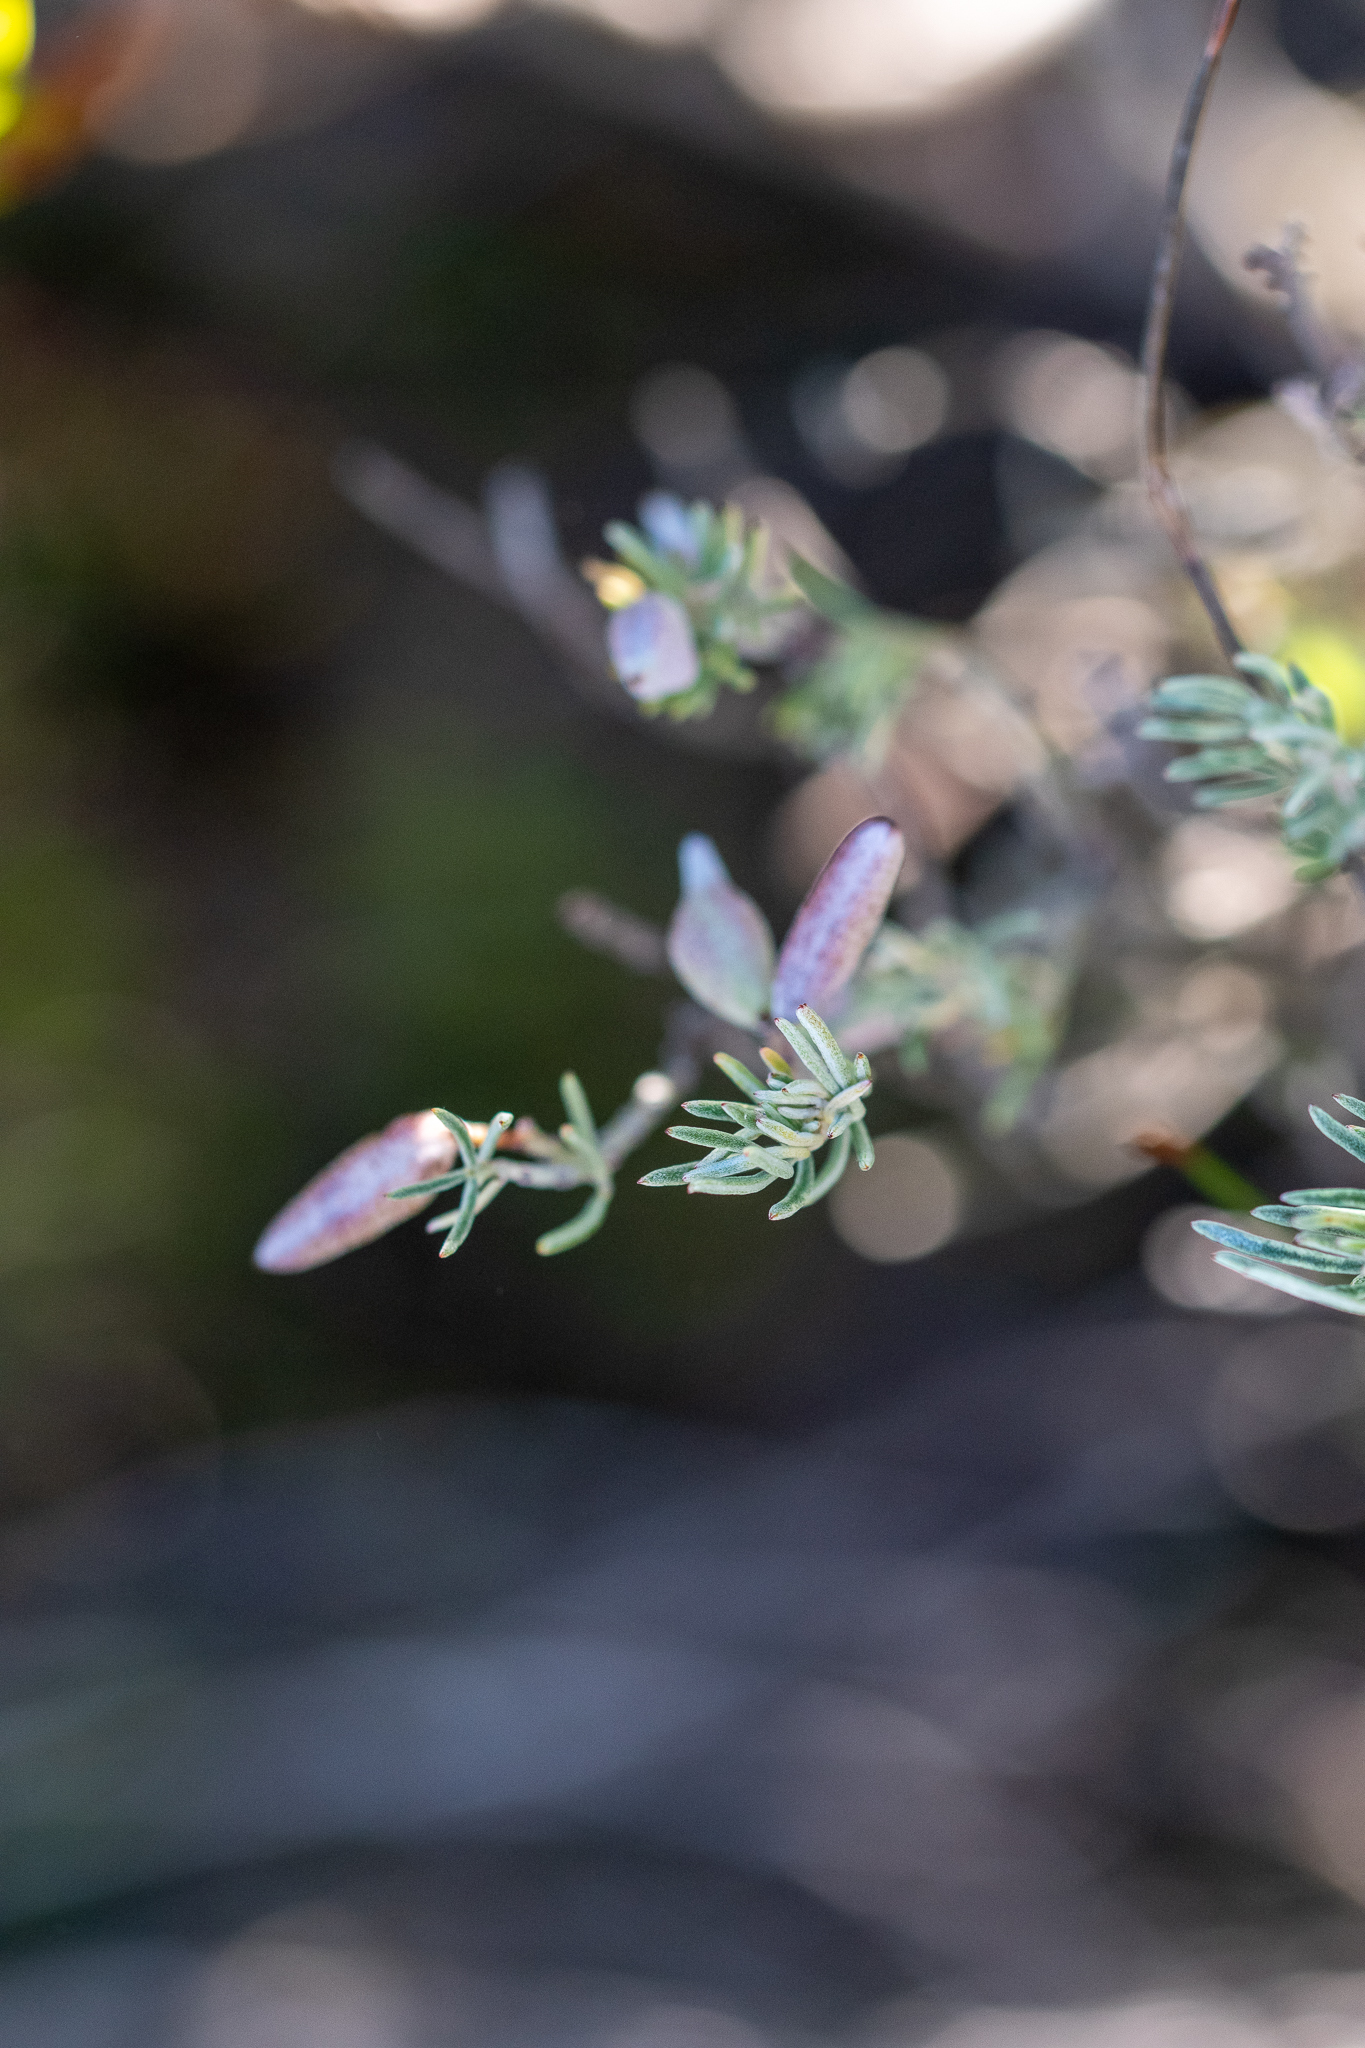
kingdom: Plantae
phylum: Tracheophyta
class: Magnoliopsida
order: Fabales
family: Fabaceae
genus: Indigofera
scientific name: Indigofera
